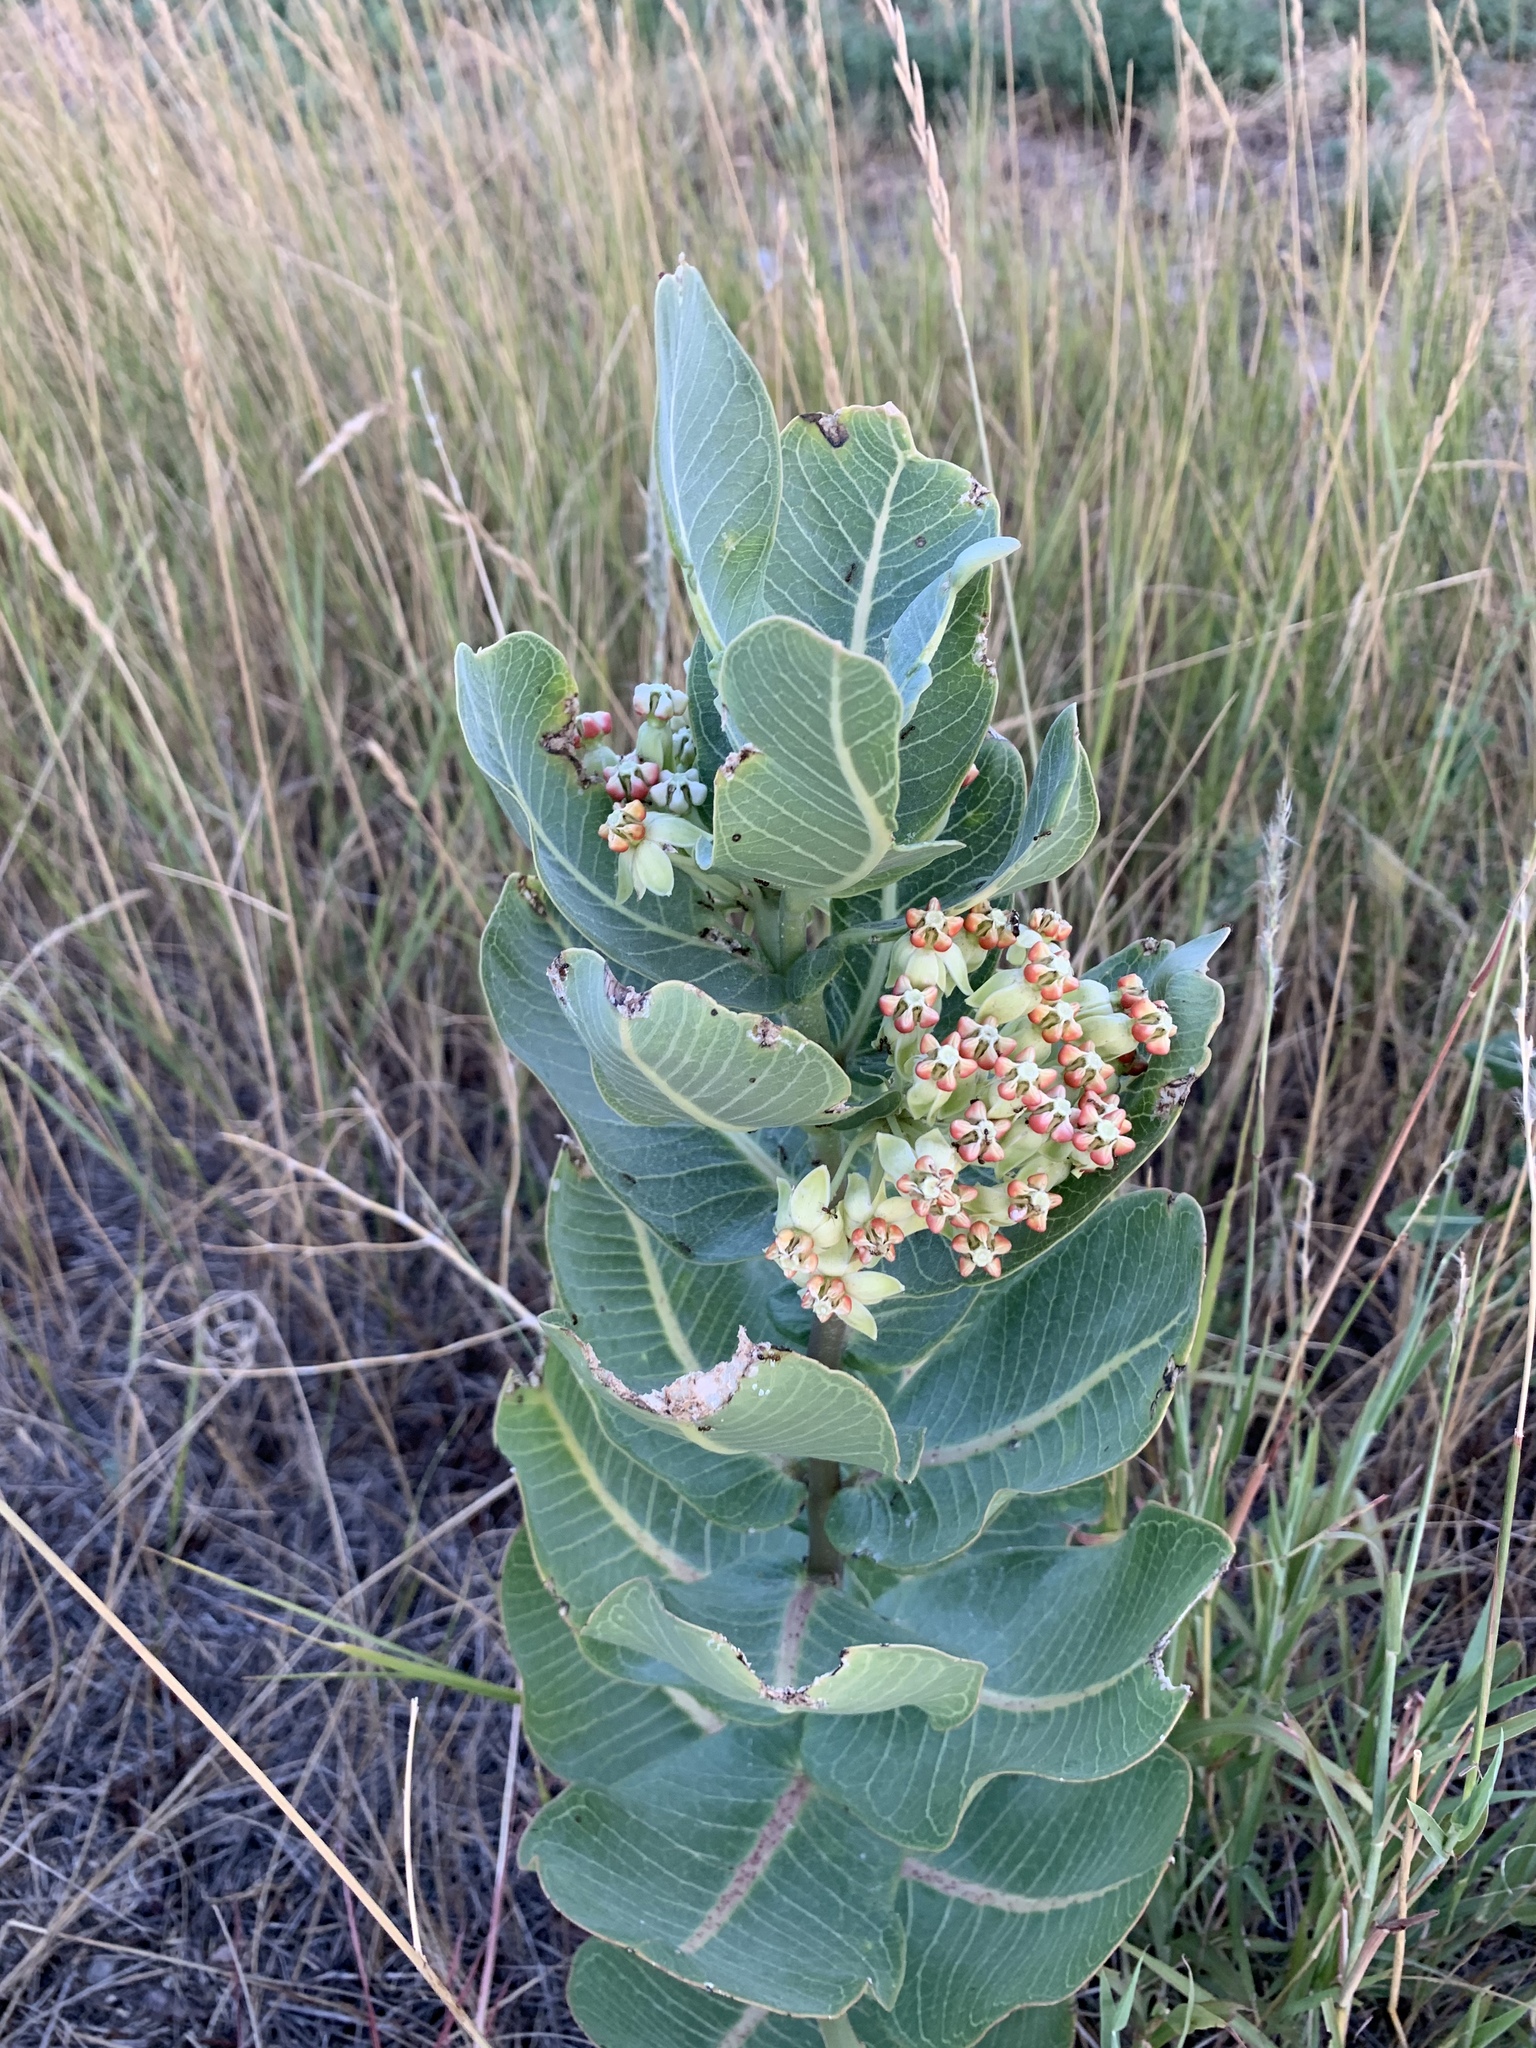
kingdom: Plantae
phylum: Tracheophyta
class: Magnoliopsida
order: Gentianales
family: Apocynaceae
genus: Asclepias
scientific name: Asclepias latifolia
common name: Broadleaf milkweed
